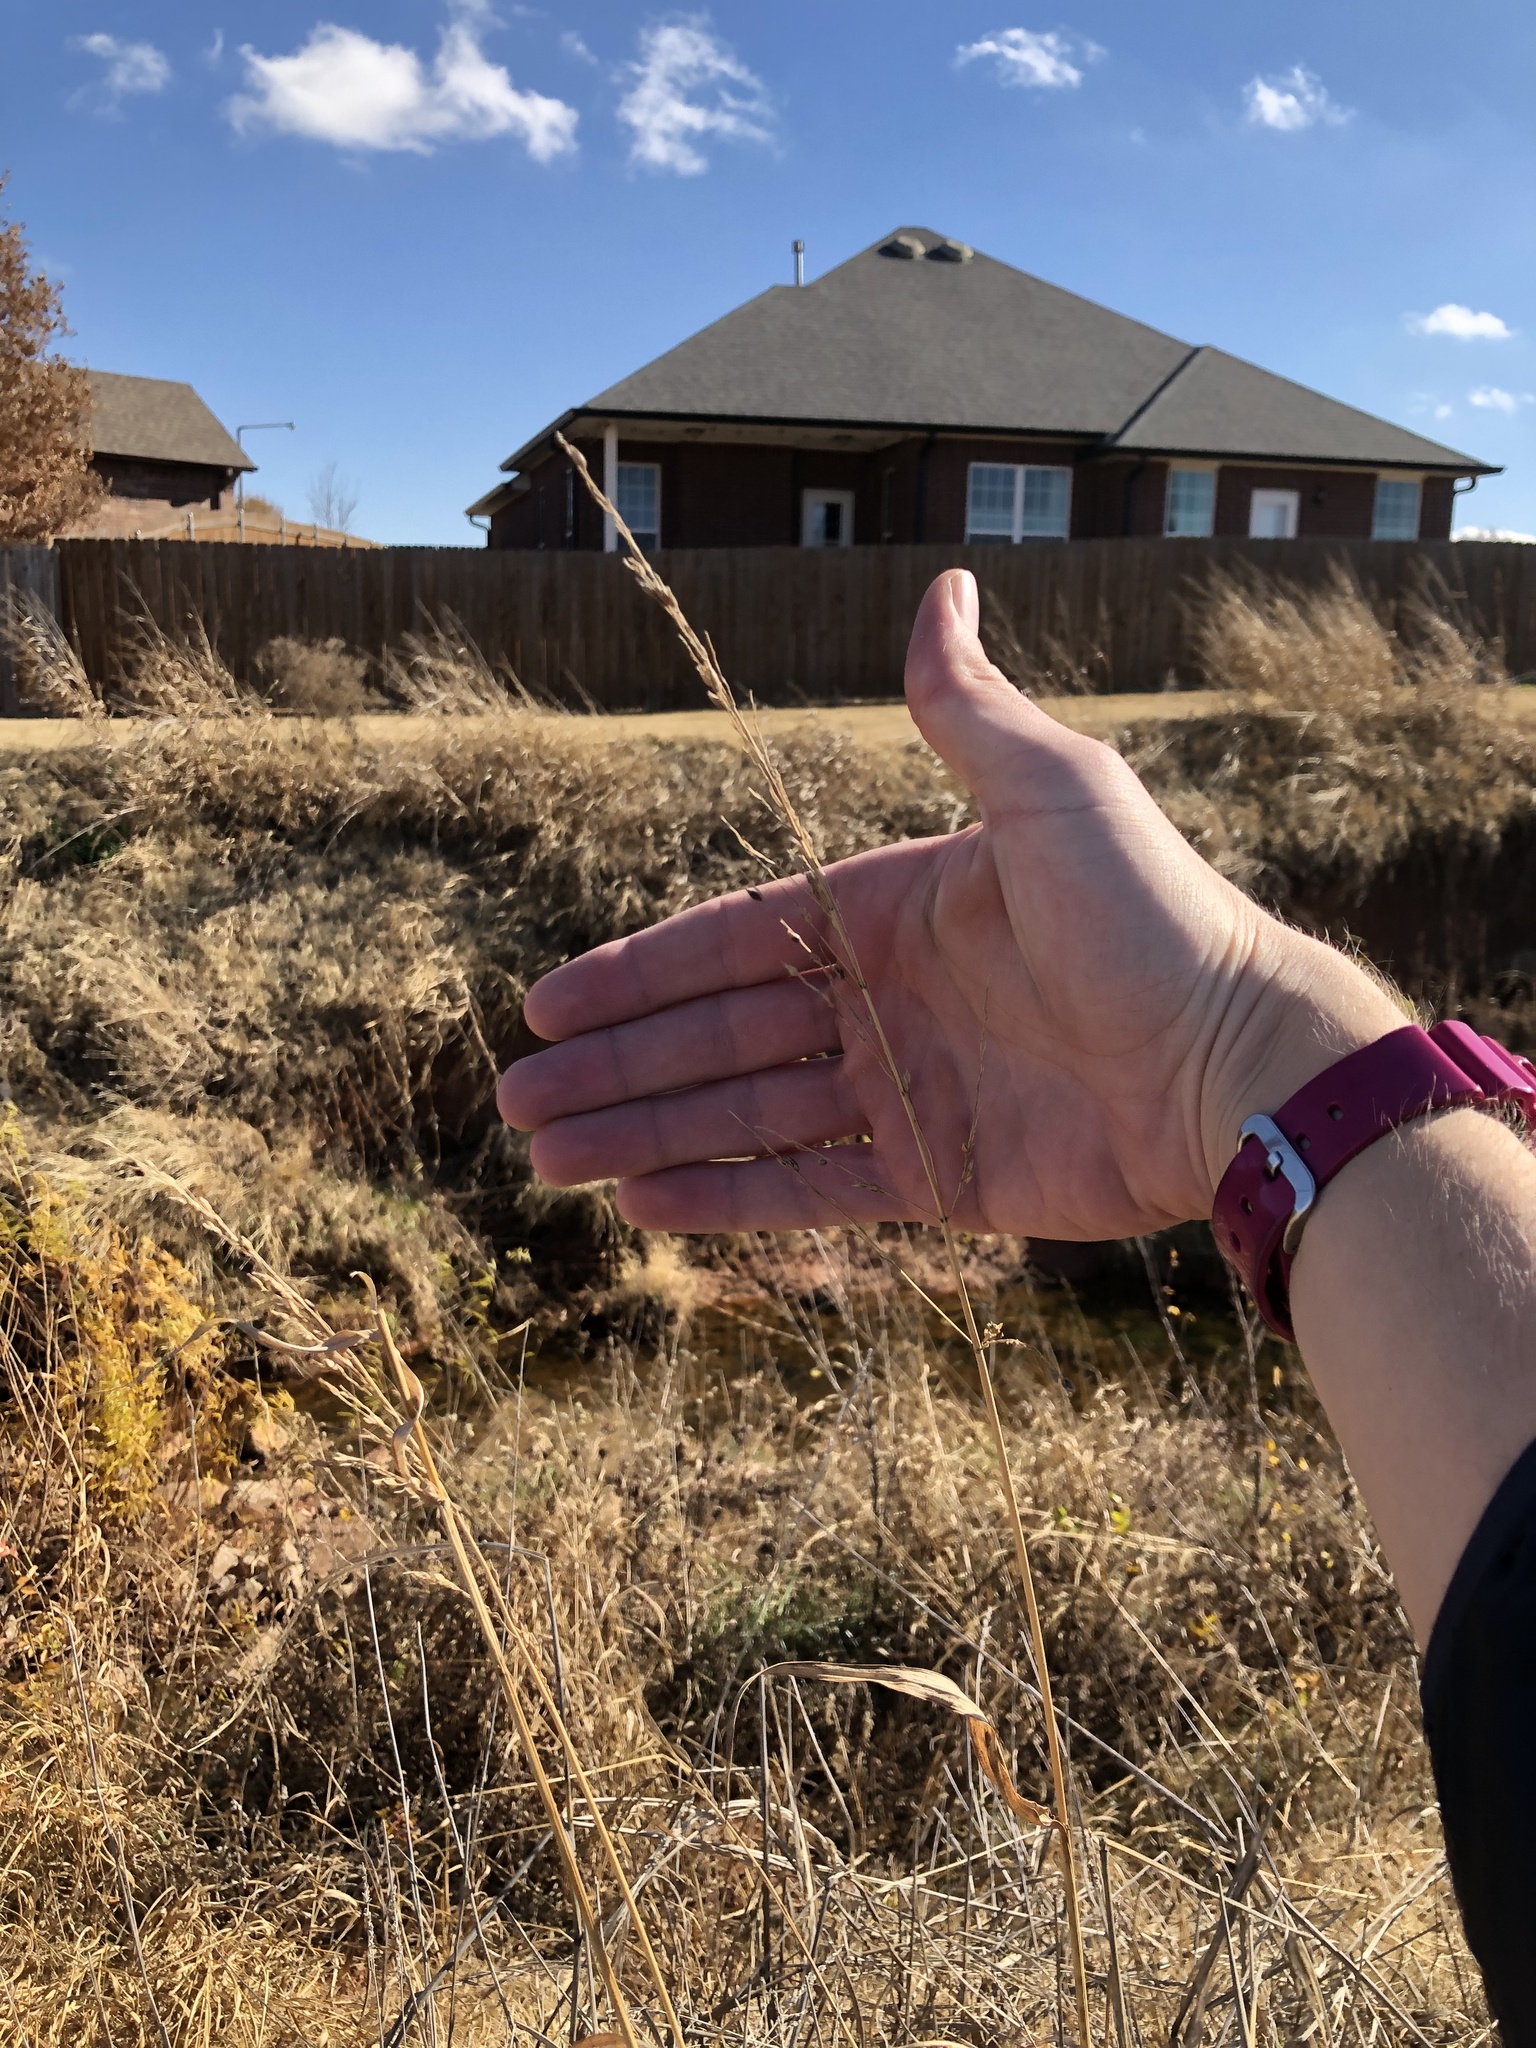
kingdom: Plantae
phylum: Tracheophyta
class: Liliopsida
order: Poales
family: Poaceae
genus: Sorghum
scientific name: Sorghum halepense
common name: Johnson-grass
